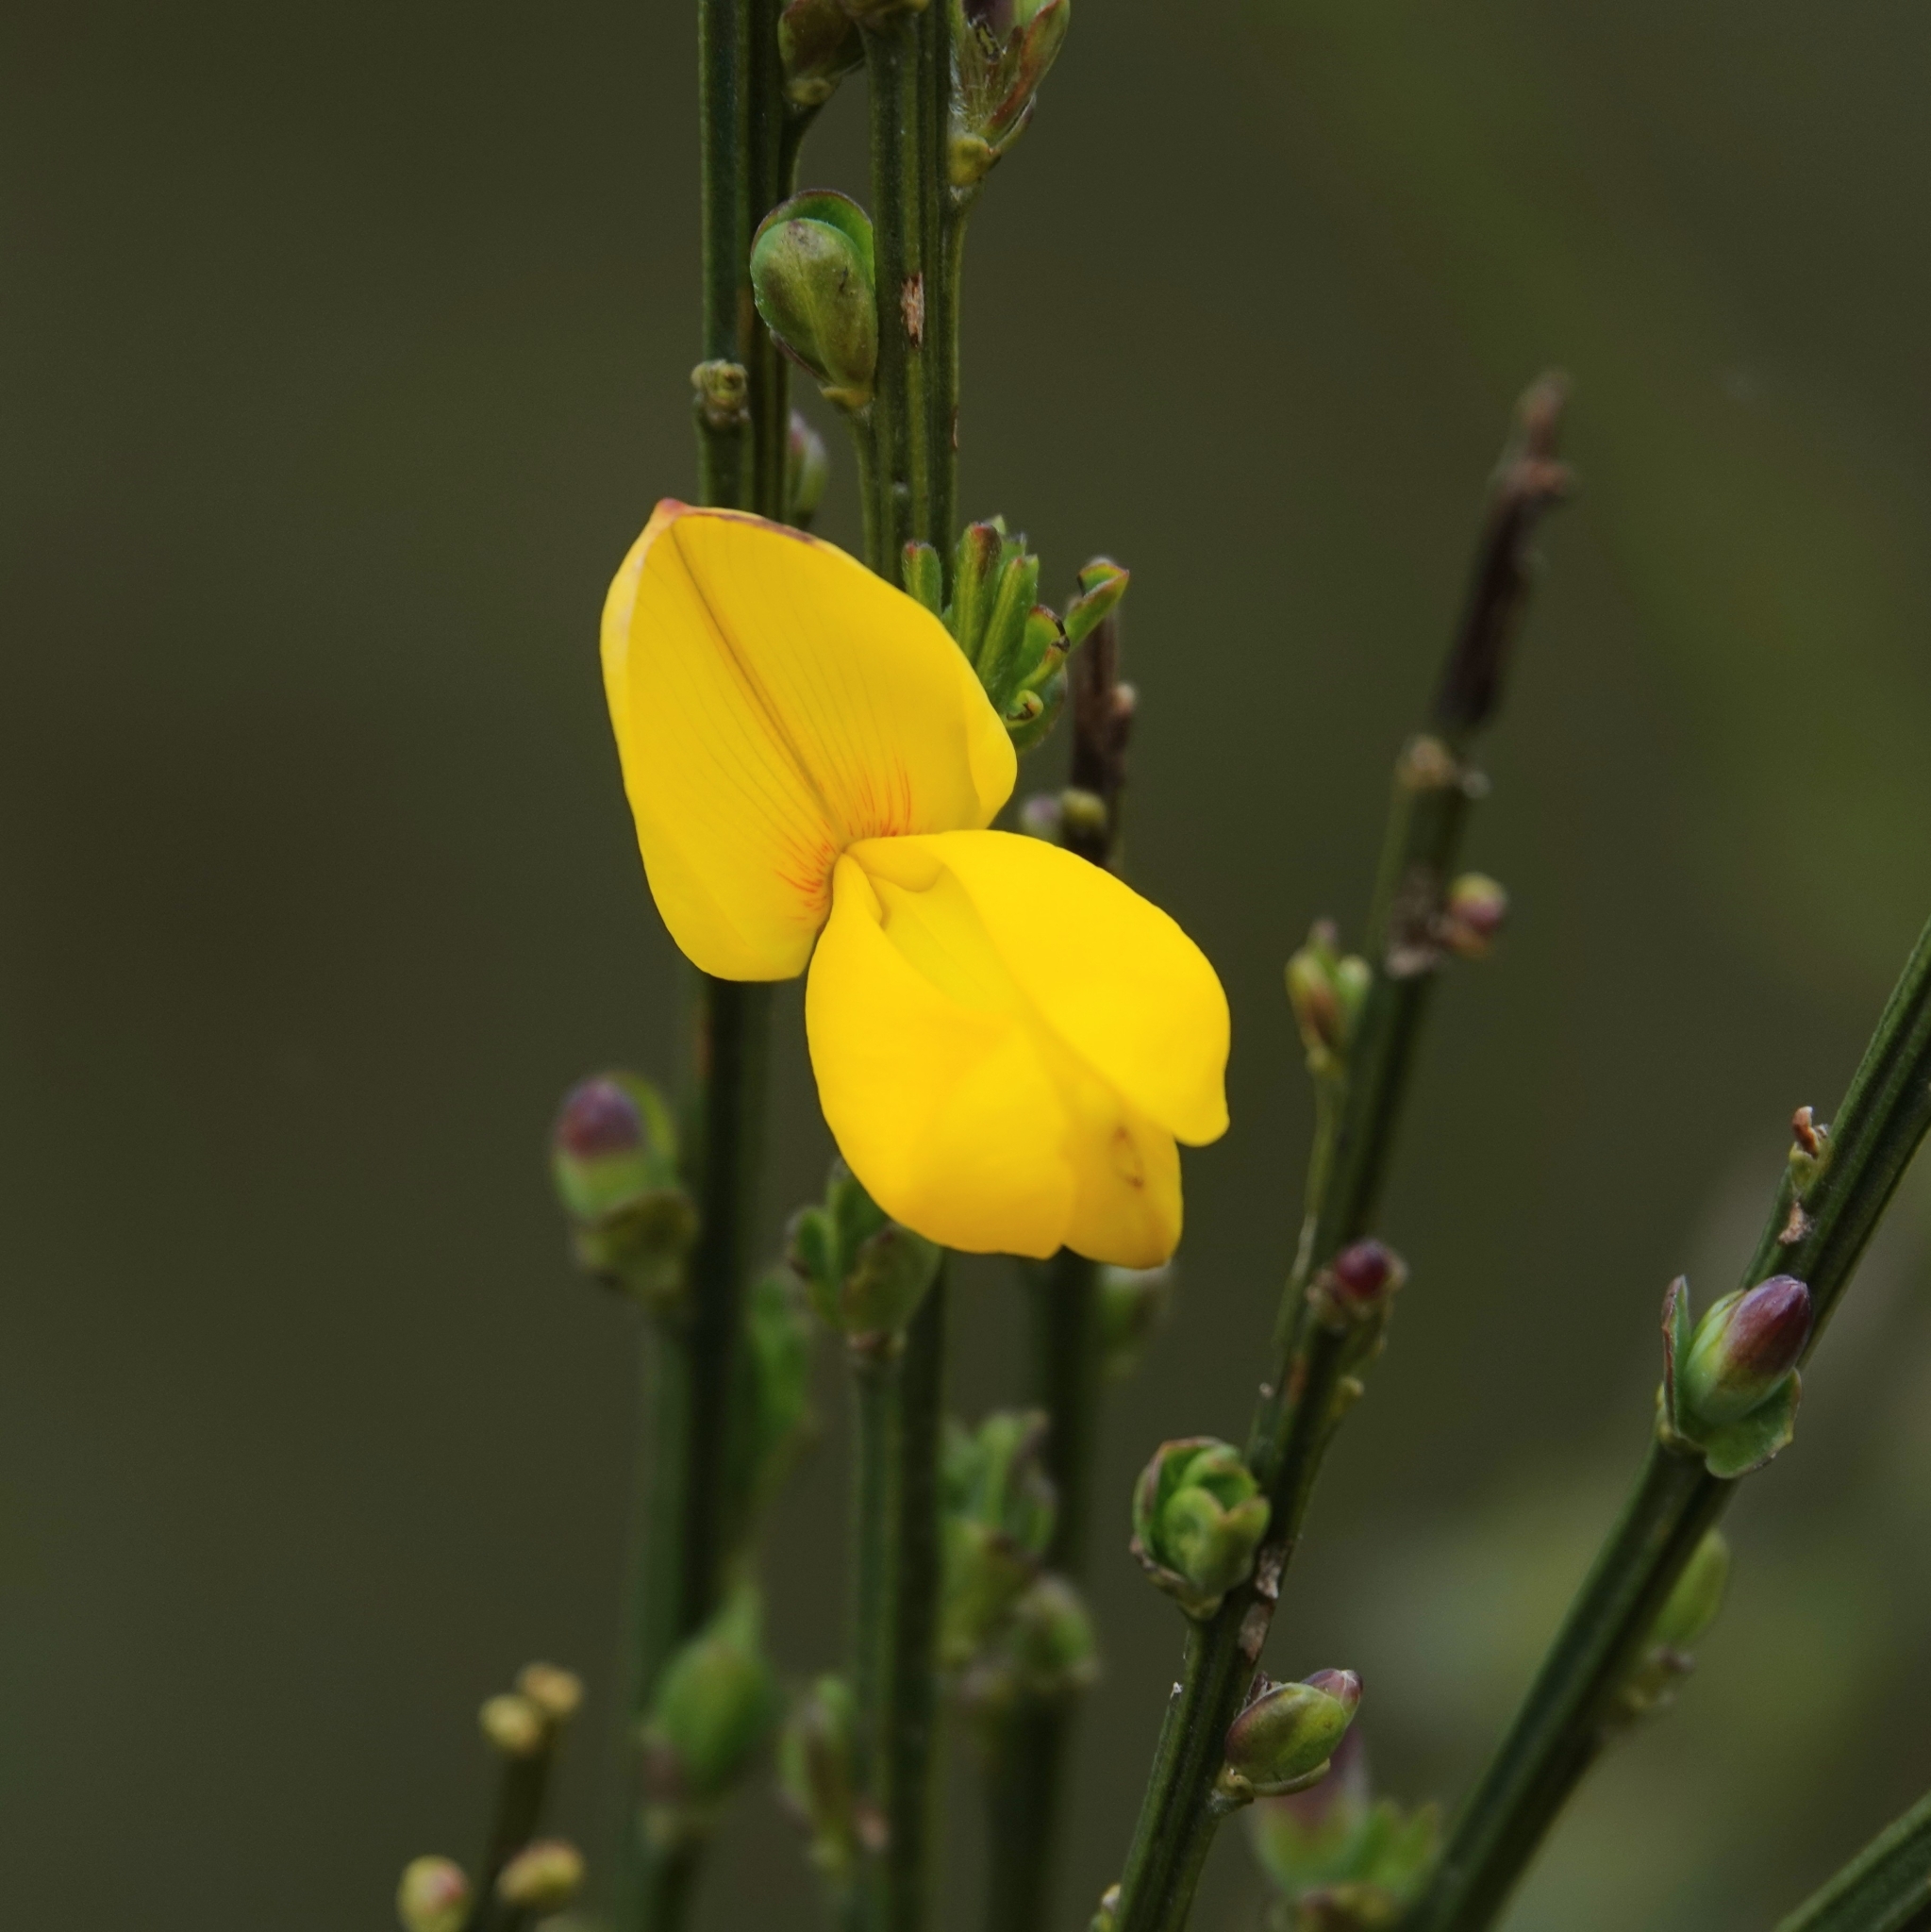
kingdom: Plantae
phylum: Tracheophyta
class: Magnoliopsida
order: Fabales
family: Fabaceae
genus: Cytisus
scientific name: Cytisus scoparius
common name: Scotch broom
